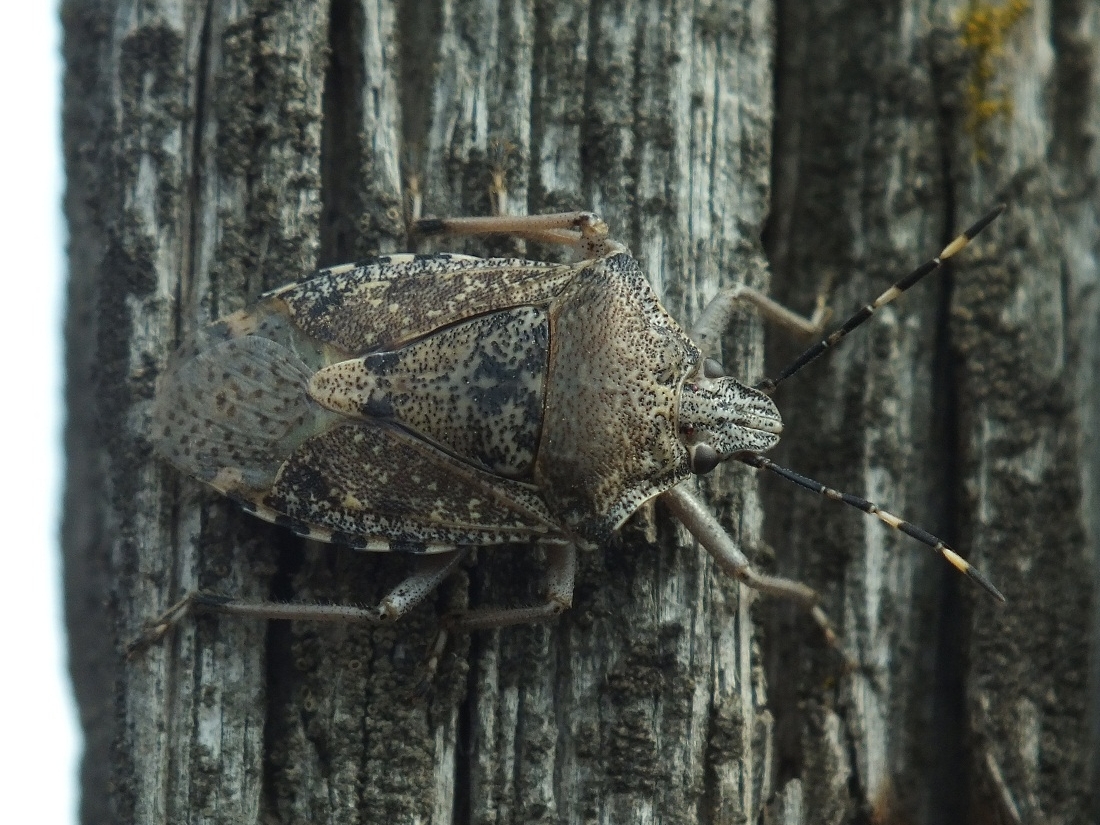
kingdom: Animalia
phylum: Arthropoda
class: Insecta
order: Hemiptera
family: Pentatomidae
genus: Rhaphigaster
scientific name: Rhaphigaster nebulosa
